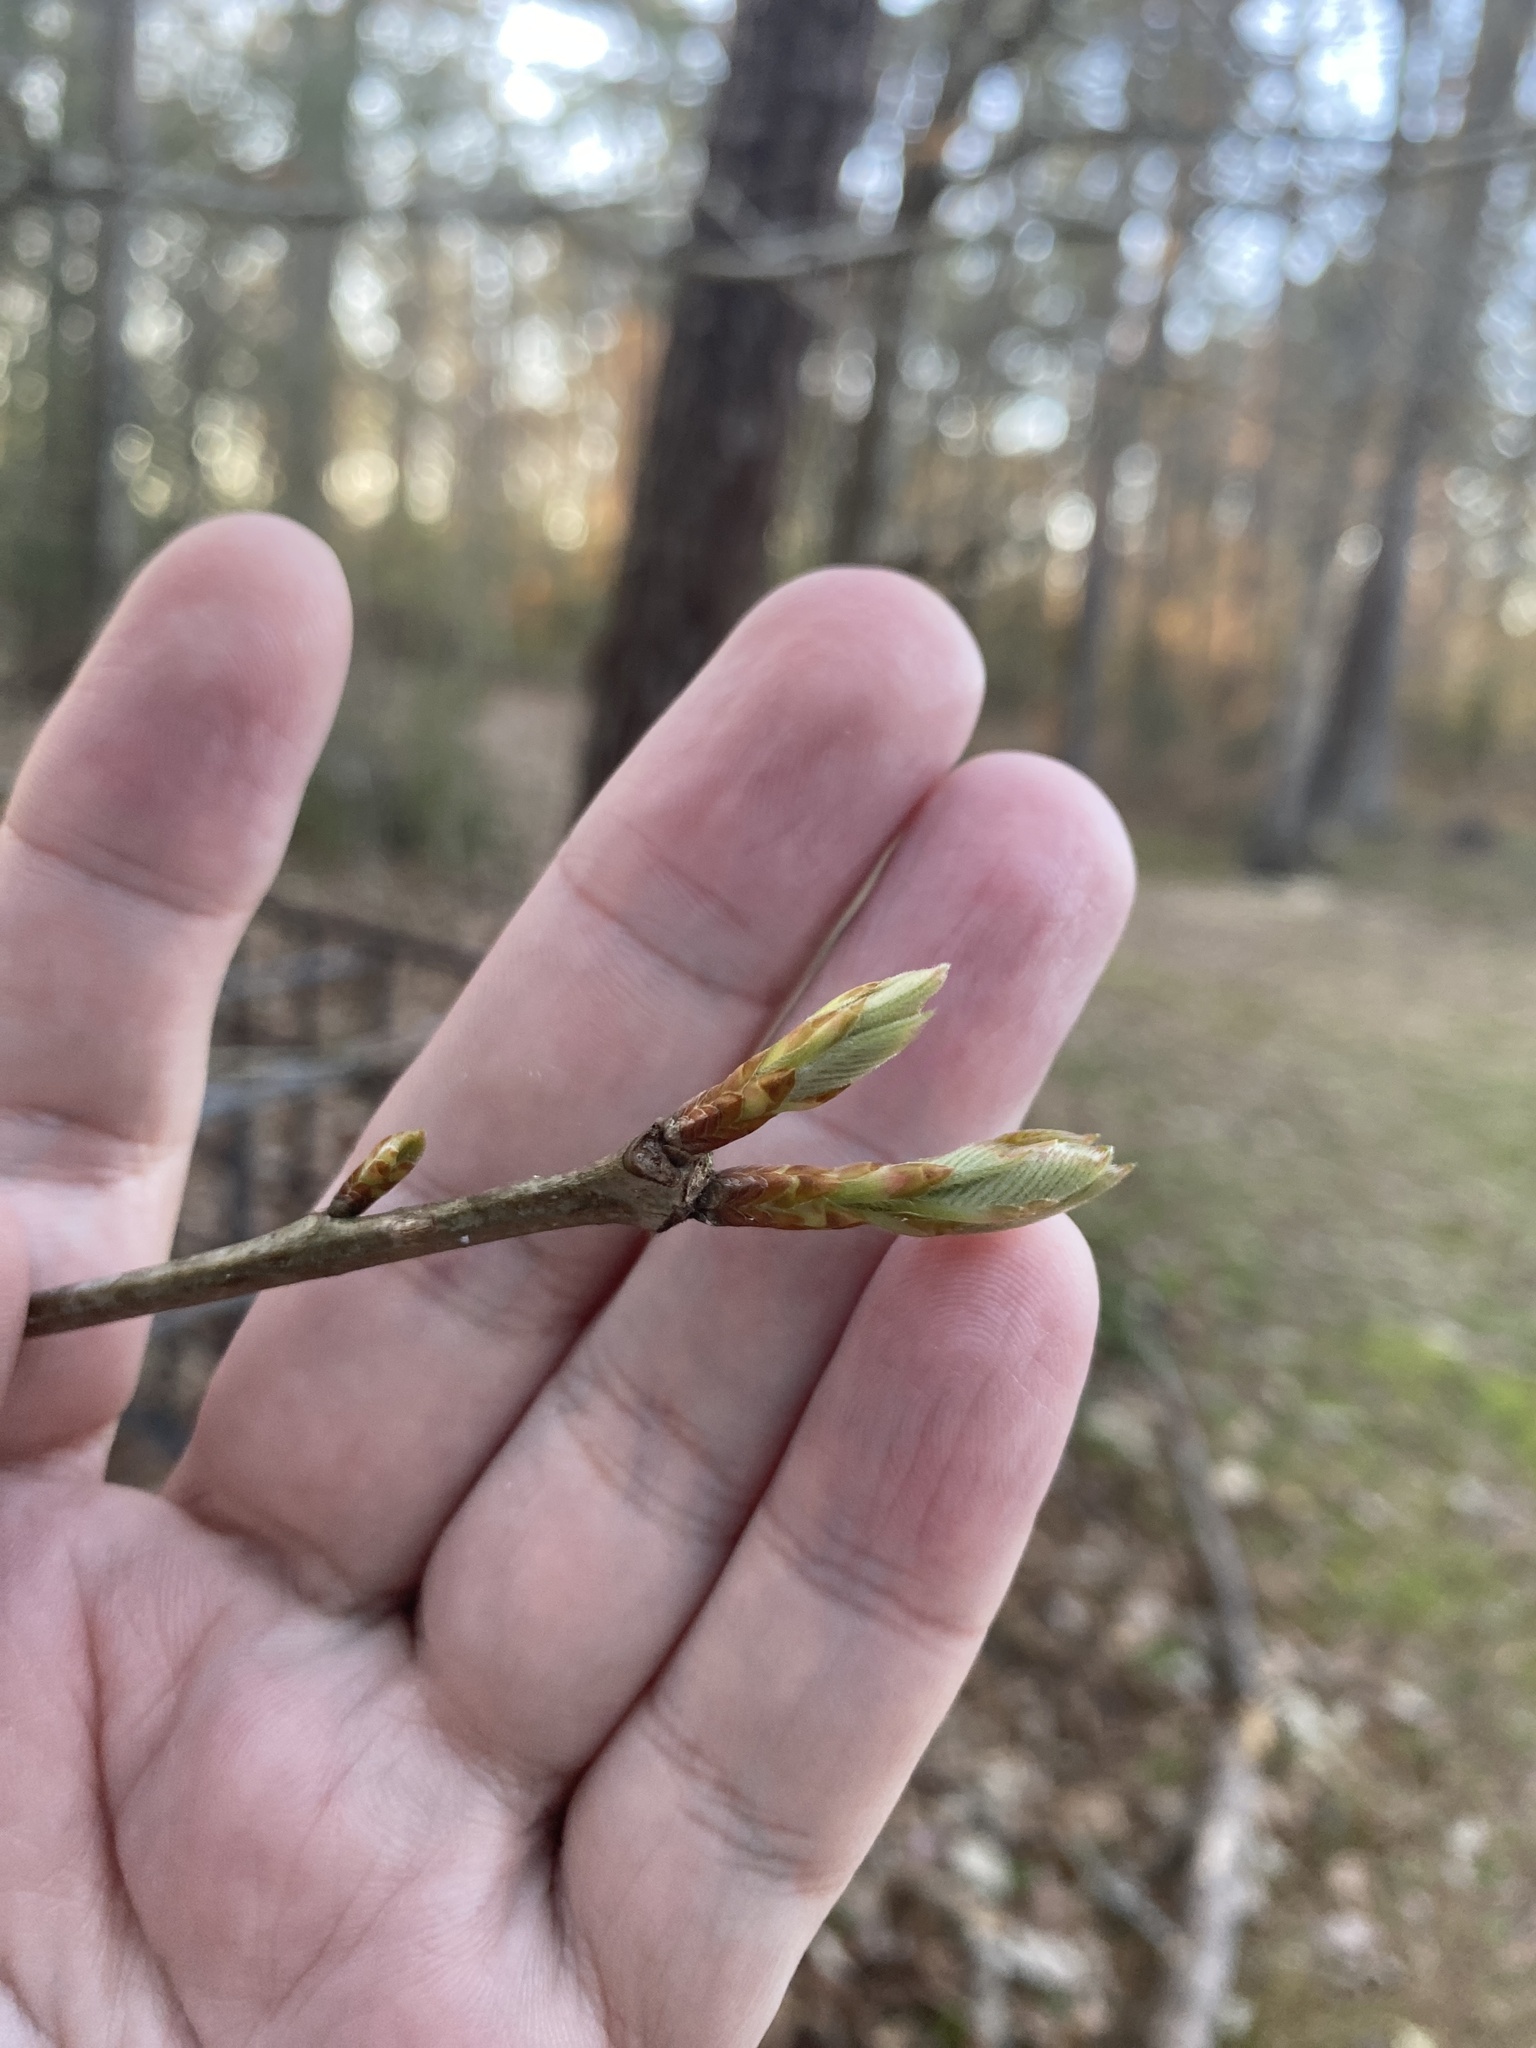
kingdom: Plantae
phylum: Tracheophyta
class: Magnoliopsida
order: Fagales
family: Fagaceae
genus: Quercus
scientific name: Quercus michauxii
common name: Swamp chestnut oak
